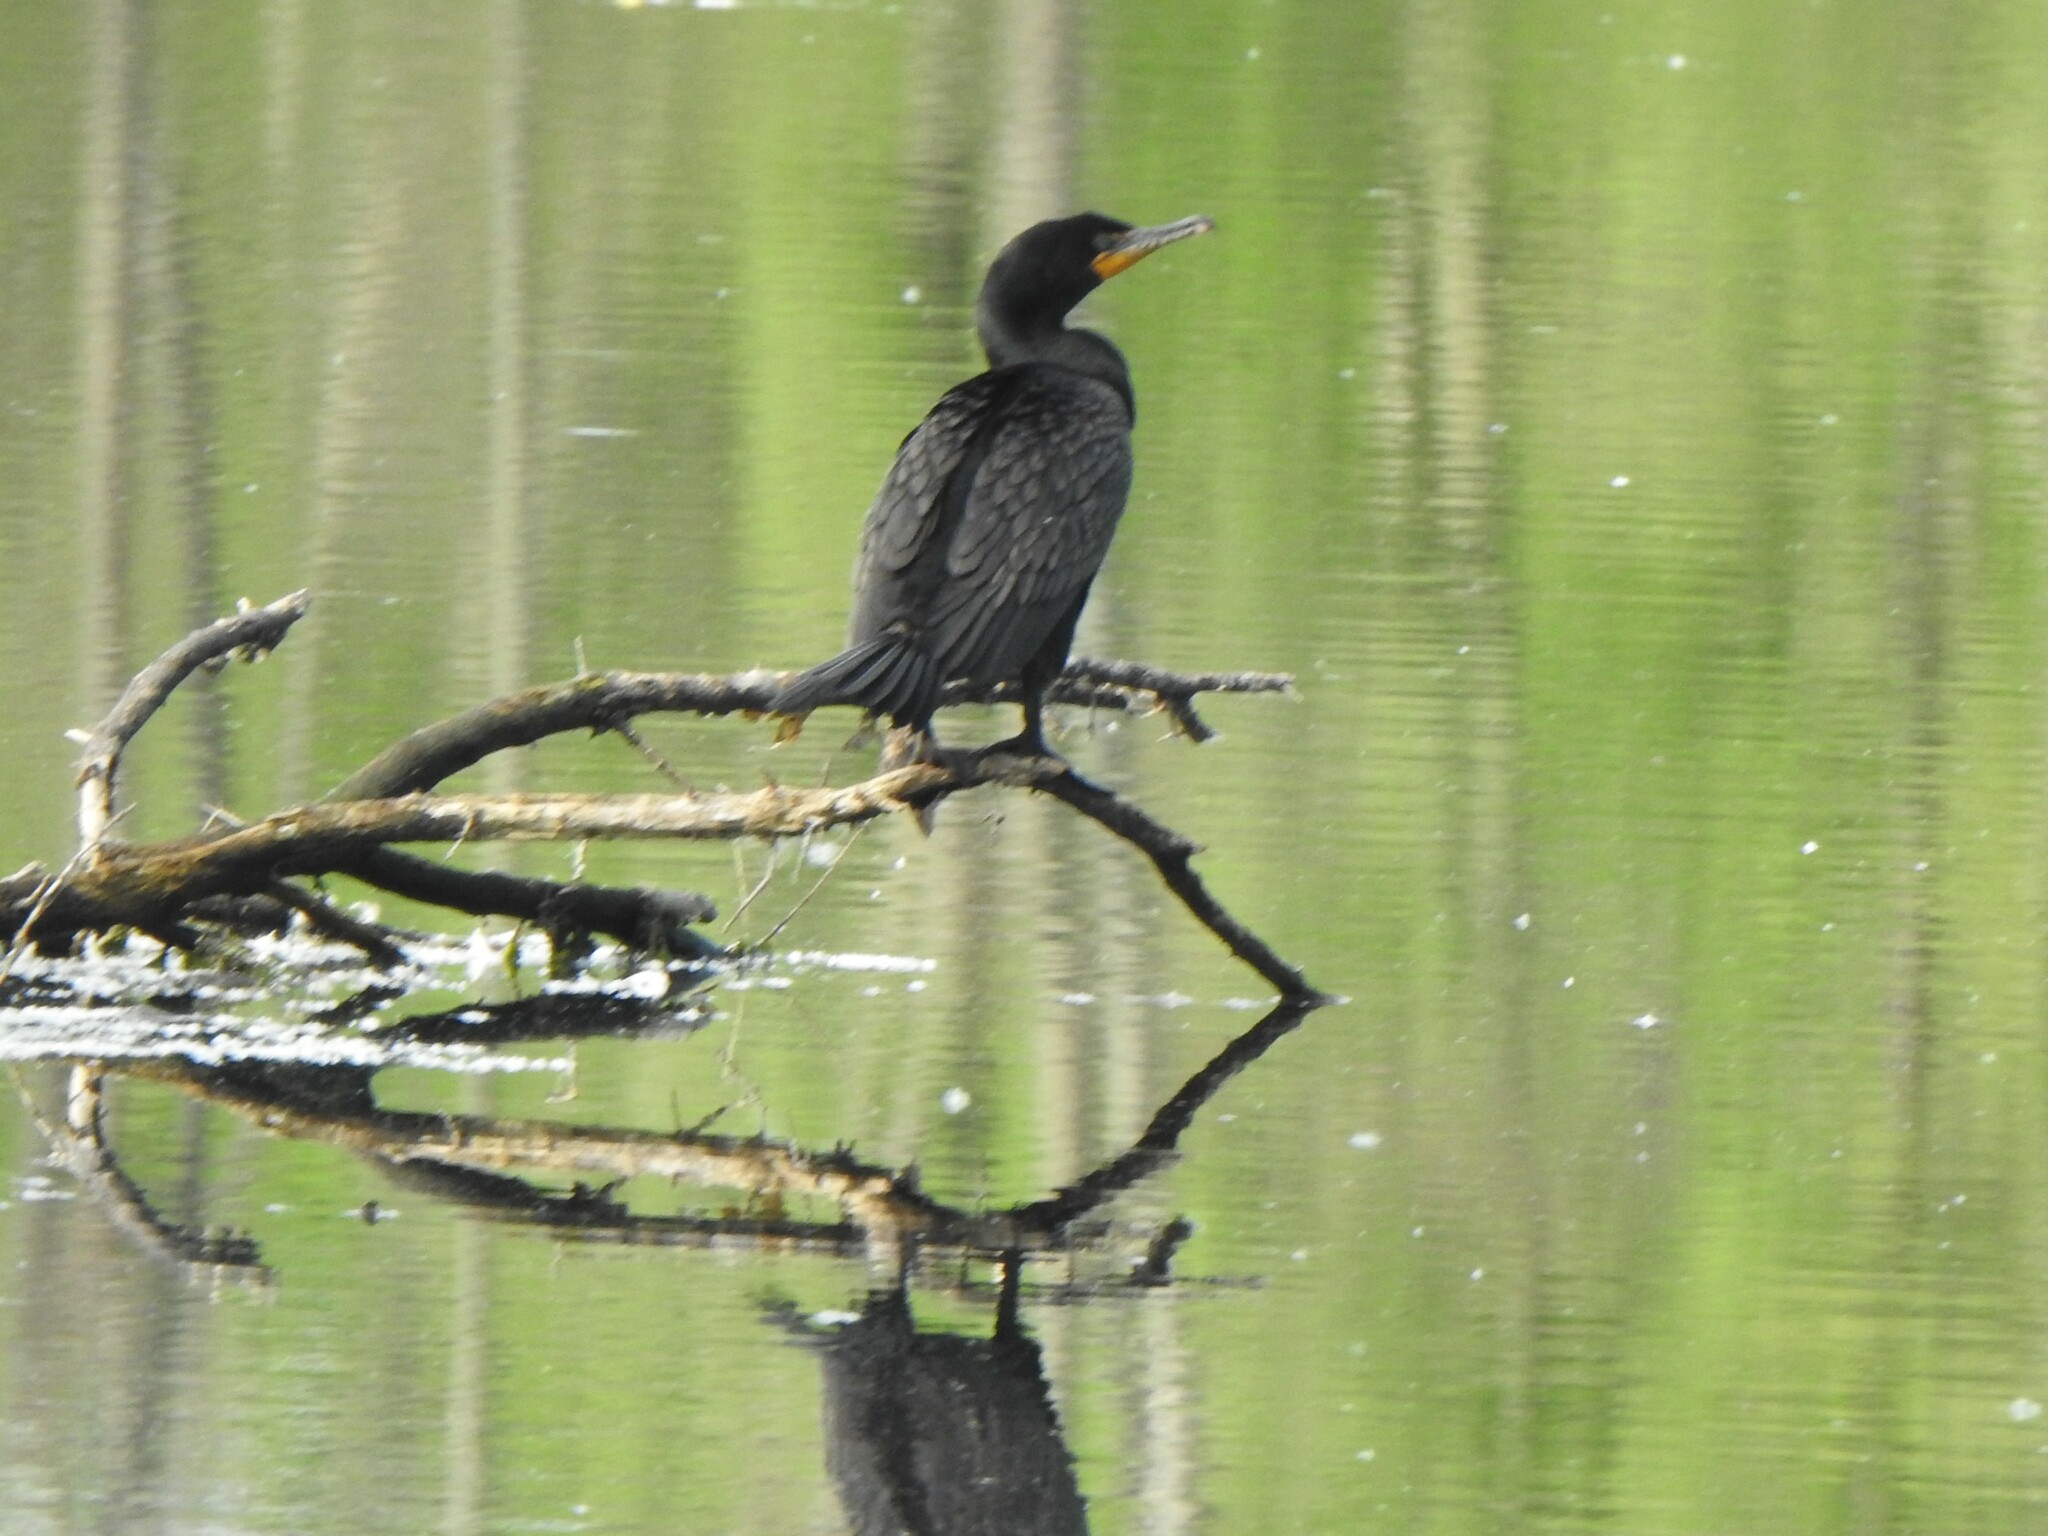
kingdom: Animalia
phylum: Chordata
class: Aves
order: Suliformes
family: Phalacrocoracidae
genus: Phalacrocorax
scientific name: Phalacrocorax auritus
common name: Double-crested cormorant
